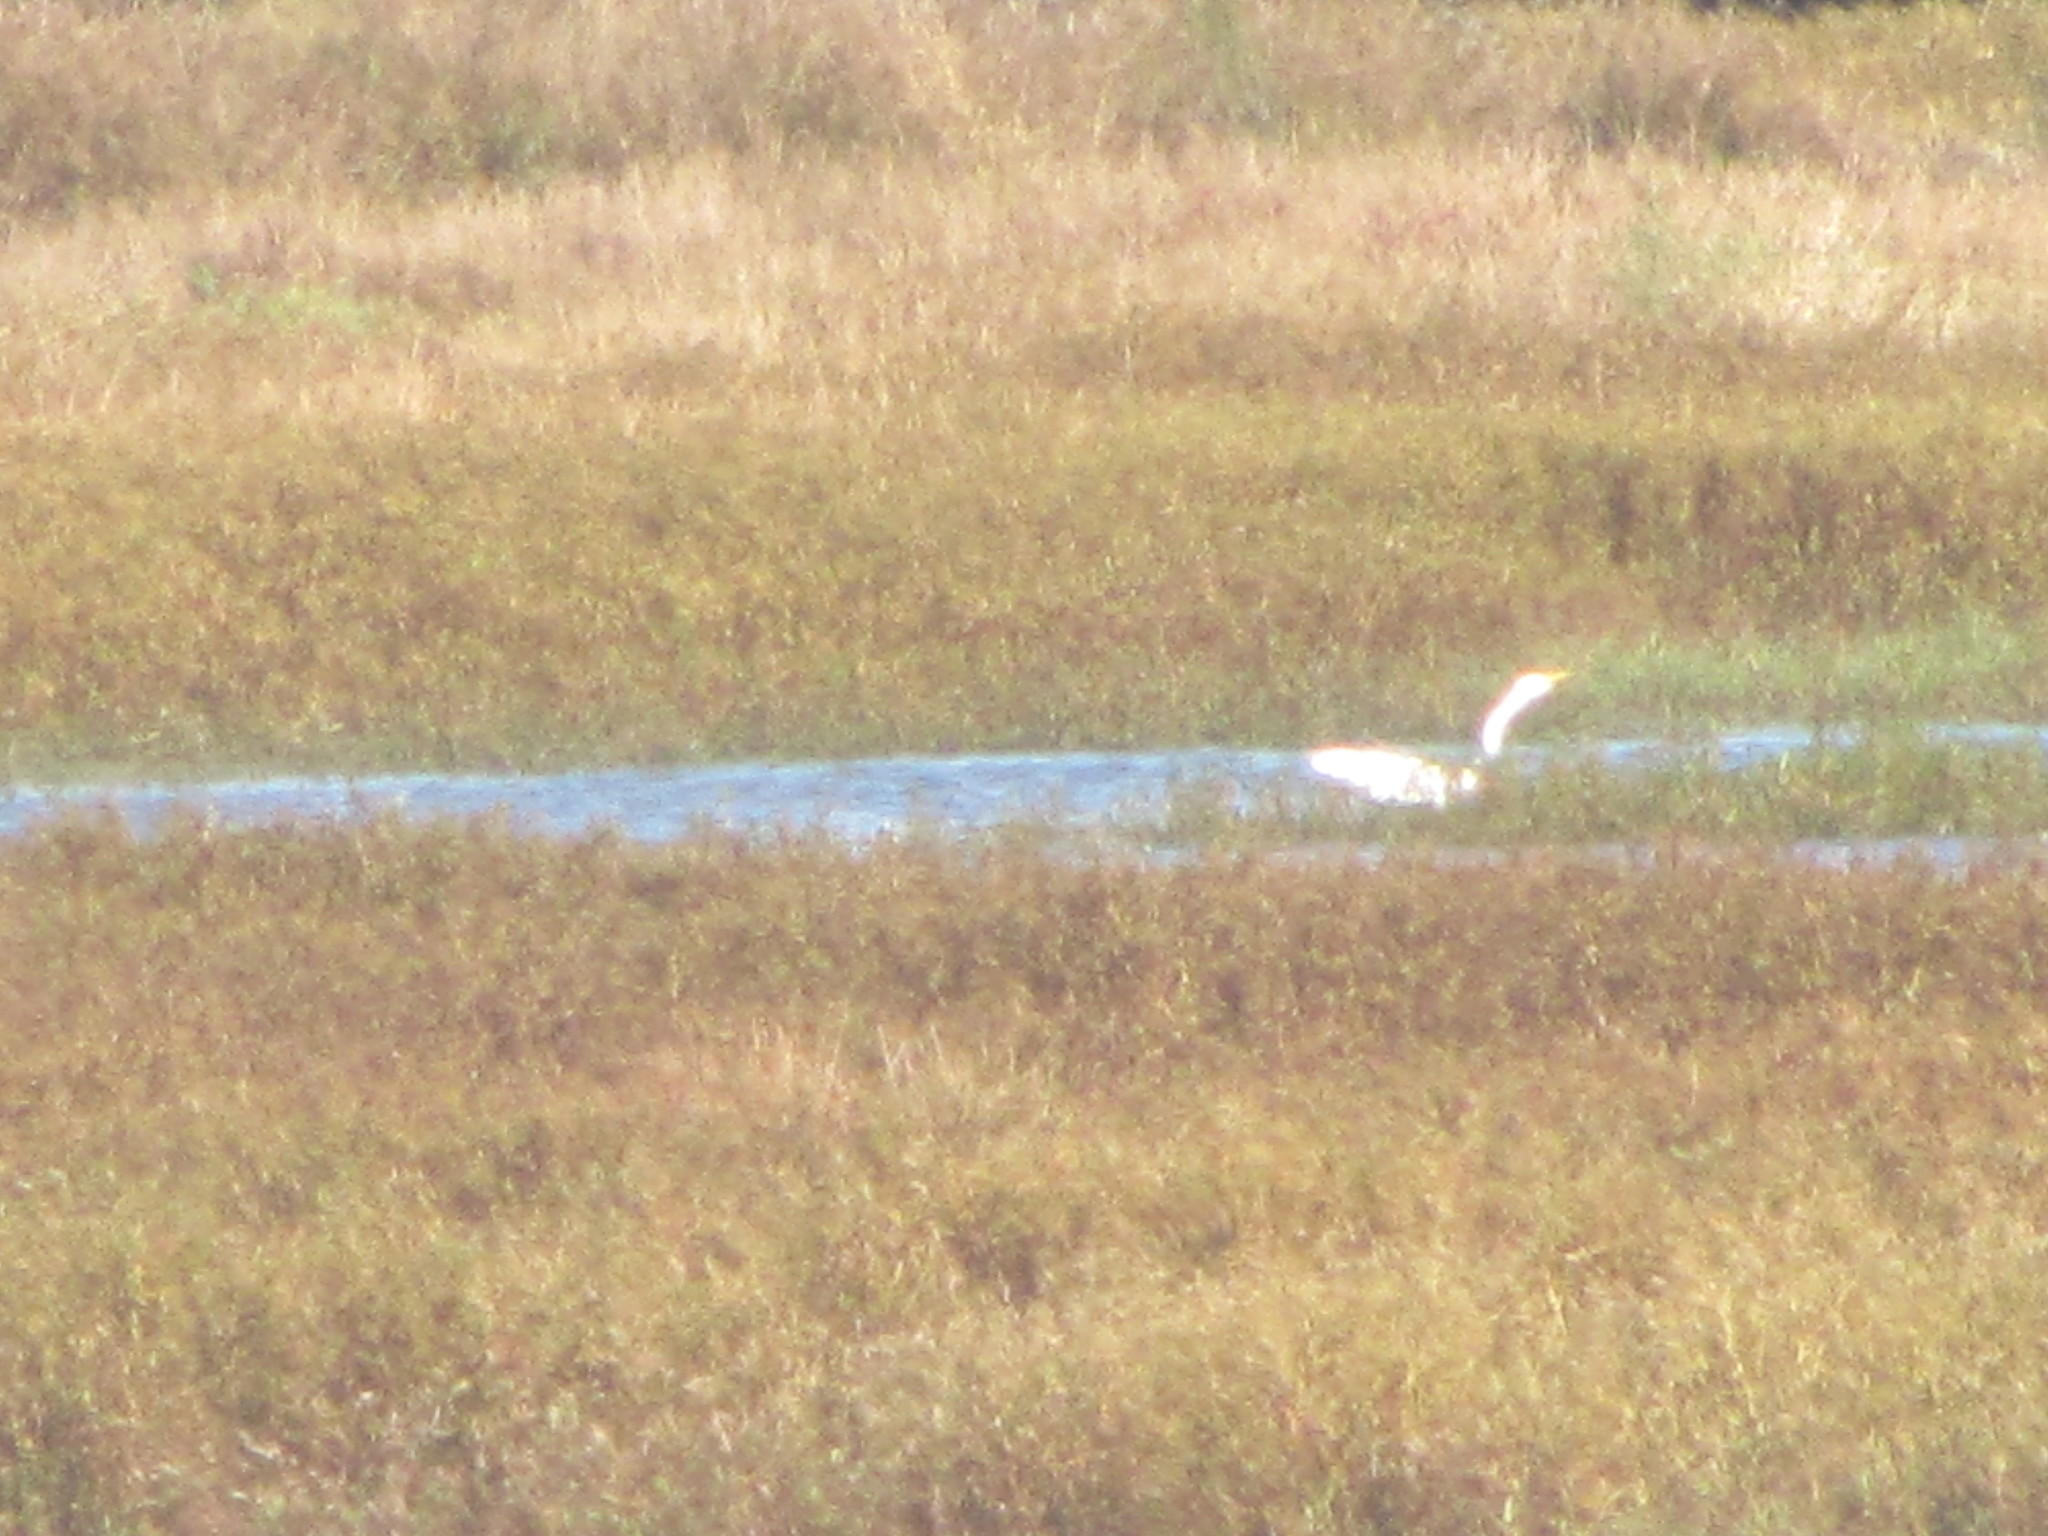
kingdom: Animalia
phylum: Chordata
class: Aves
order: Pelecaniformes
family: Ardeidae
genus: Ardea
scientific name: Ardea alba
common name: Great egret
